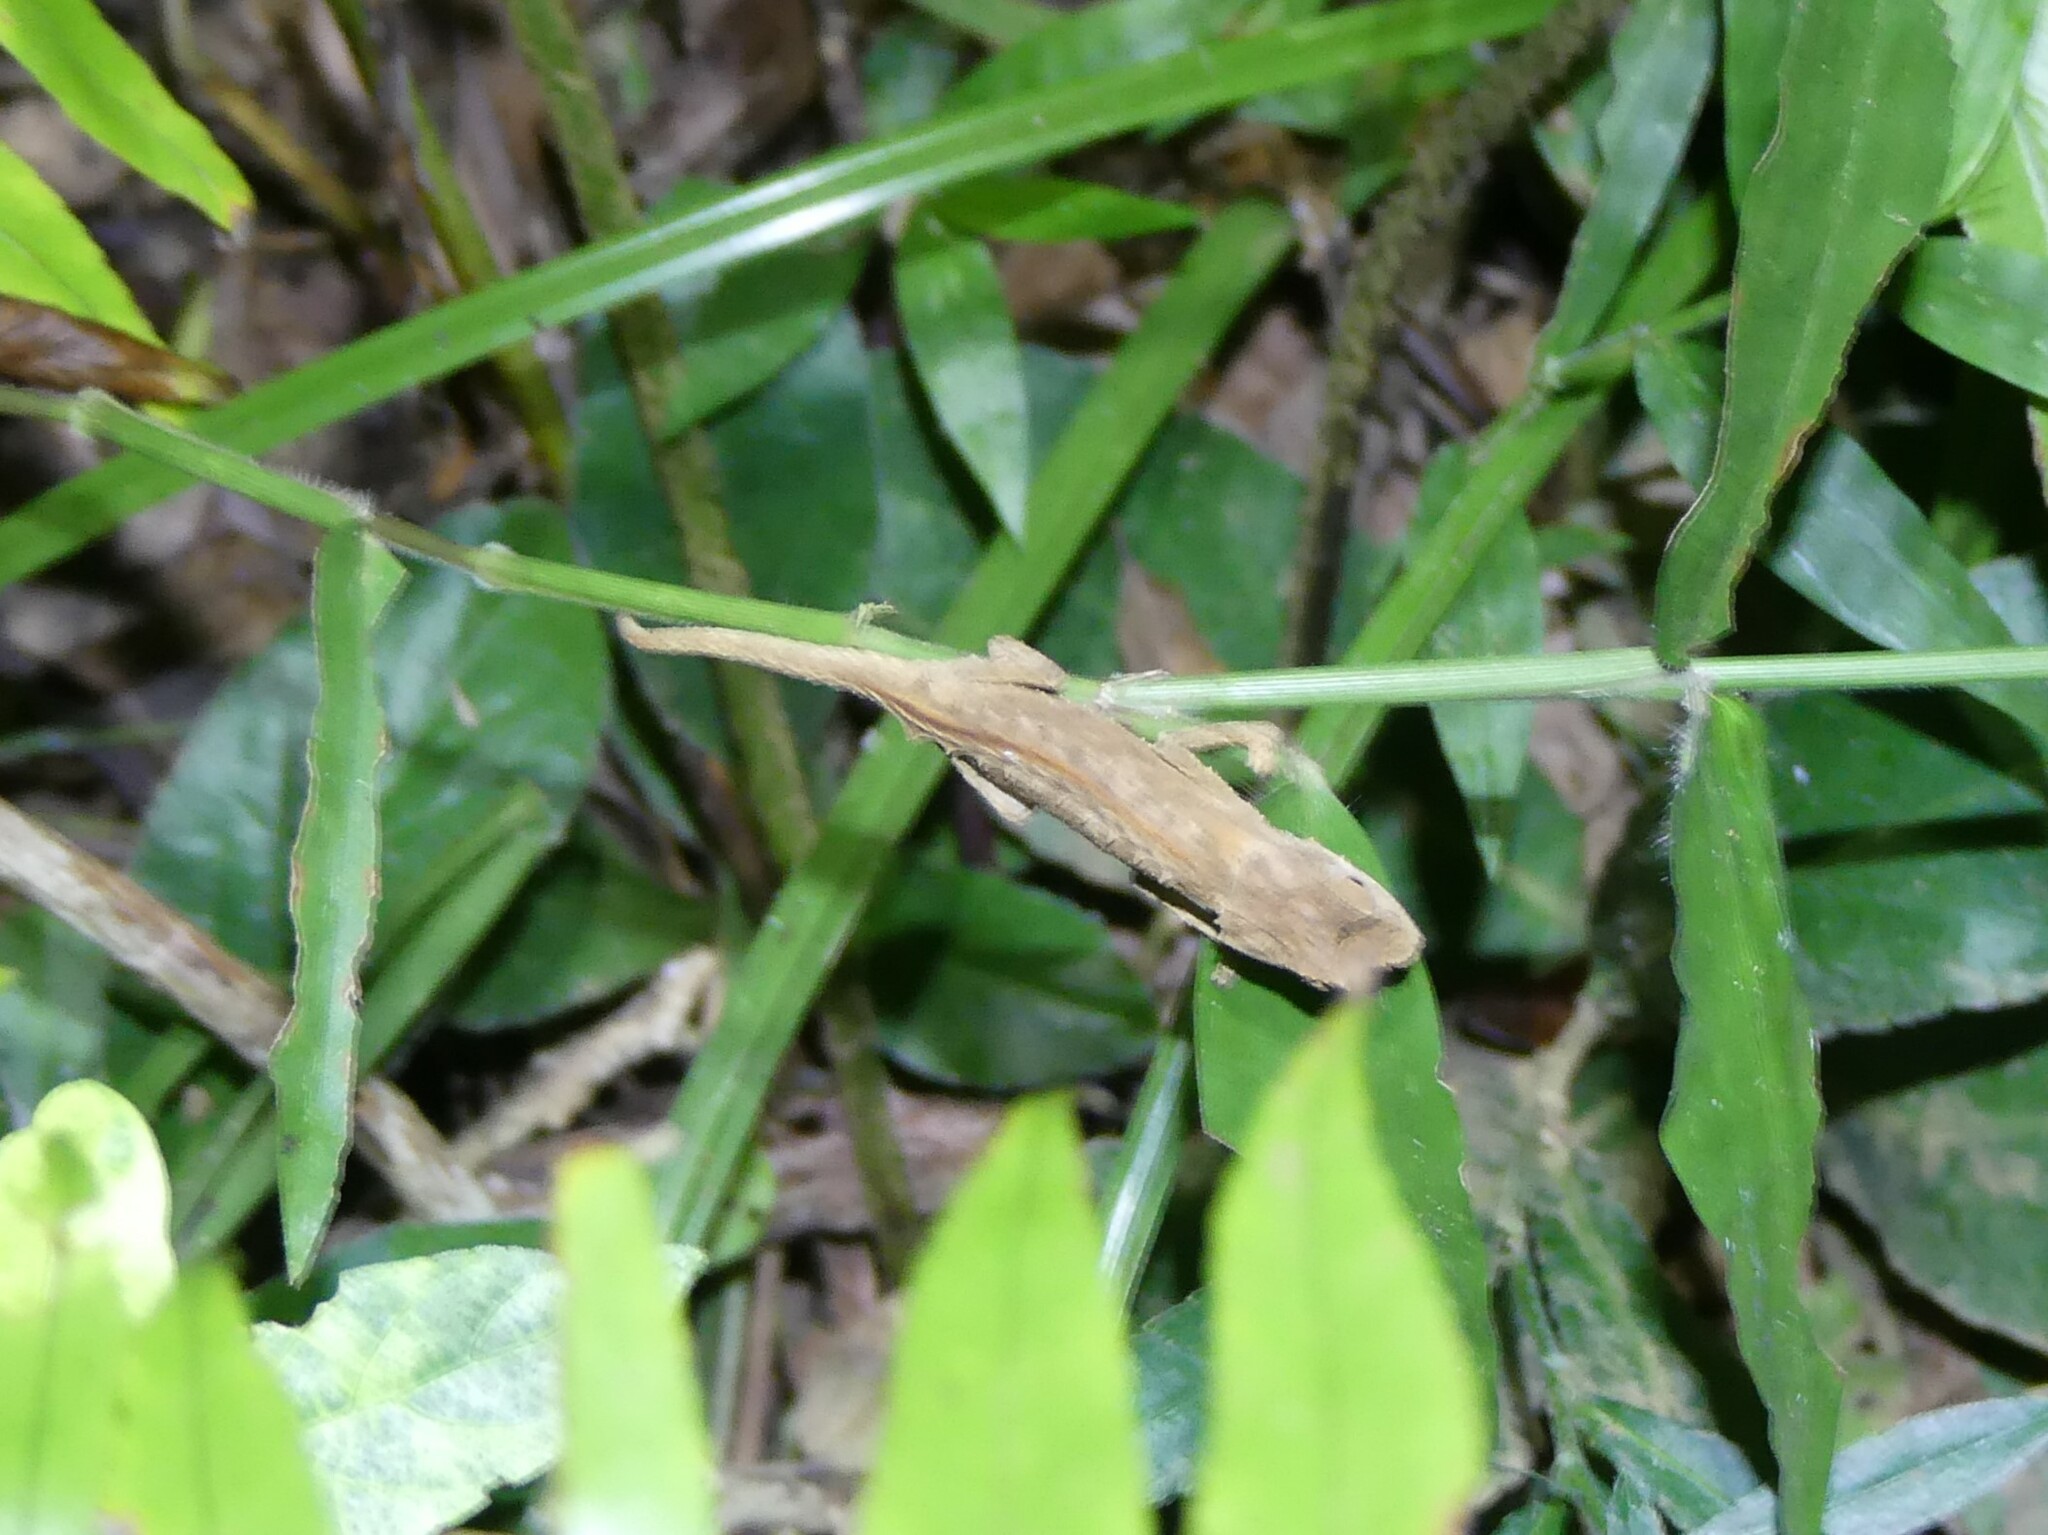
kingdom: Animalia
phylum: Chordata
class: Squamata
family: Chamaeleonidae
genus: Brookesia
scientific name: Brookesia stumpffi
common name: Plated leaf chameleon
